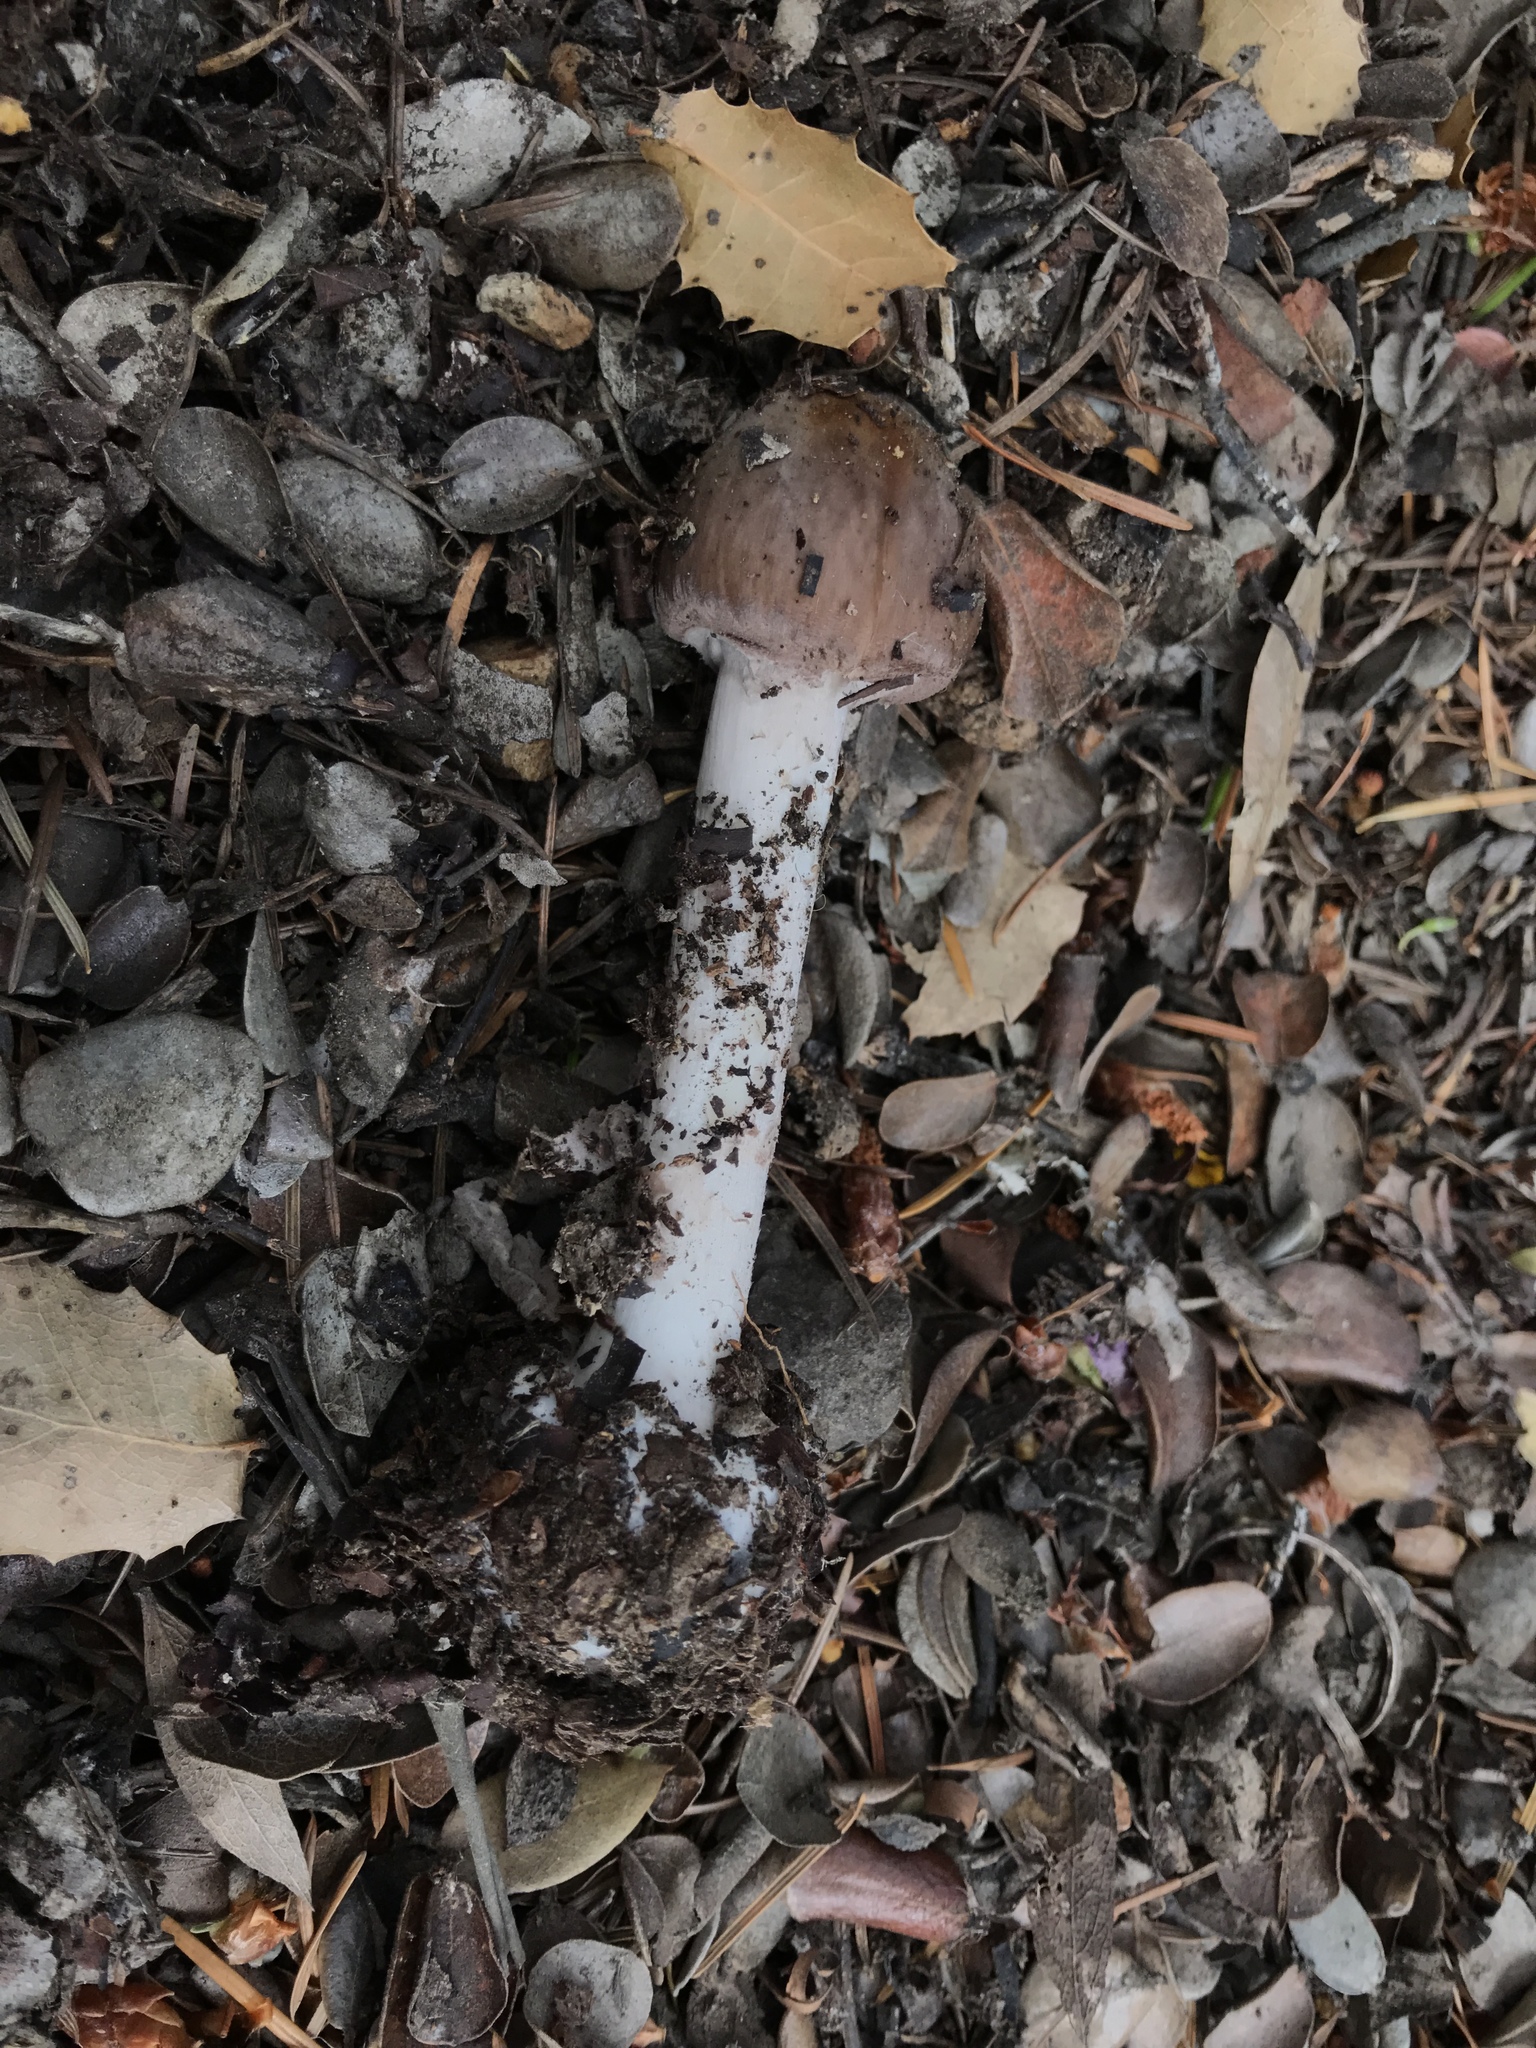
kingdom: Fungi
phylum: Basidiomycota
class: Agaricomycetes
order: Agaricales
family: Amanitaceae
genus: Amanita
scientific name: Amanita porphyria
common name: Grey veiled amanita
